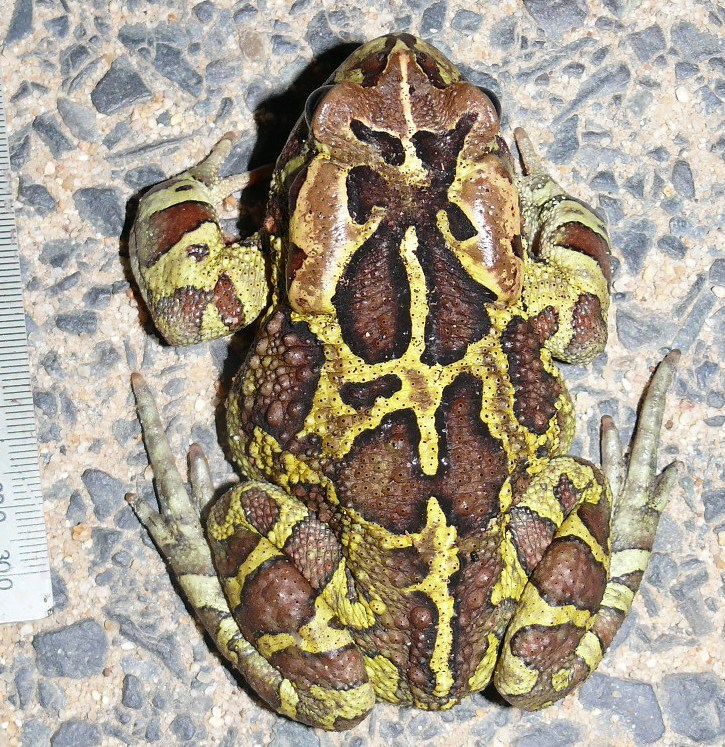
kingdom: Animalia
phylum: Chordata
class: Amphibia
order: Anura
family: Bufonidae
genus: Sclerophrys
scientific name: Sclerophrys pantherina
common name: Panther toad
